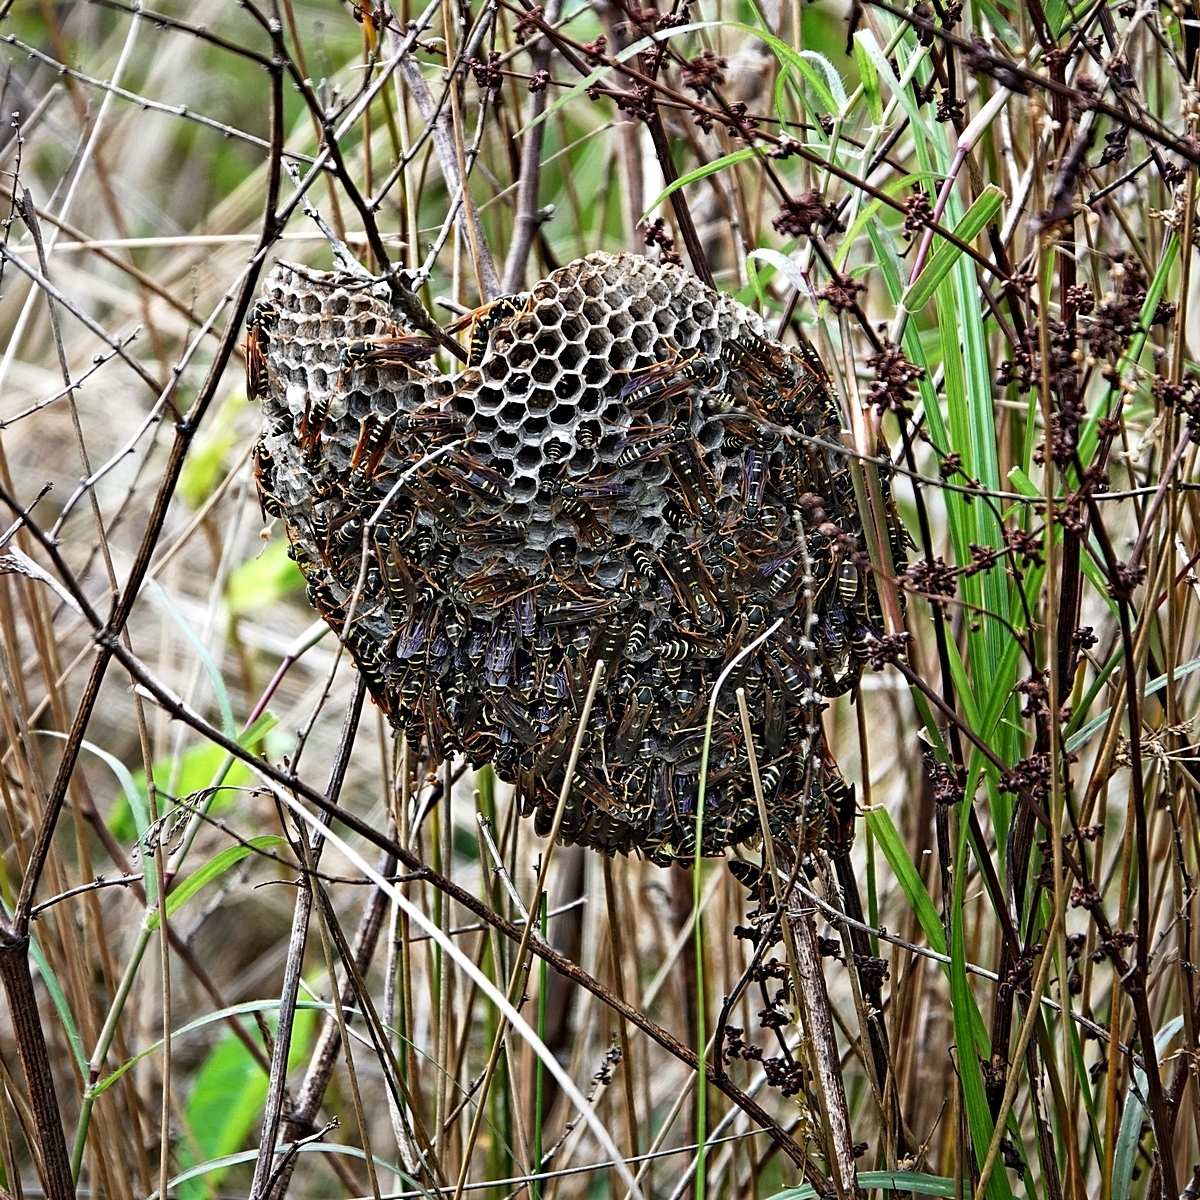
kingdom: Animalia
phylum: Arthropoda
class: Insecta
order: Hymenoptera
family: Eumenidae
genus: Polistes
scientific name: Polistes chinensis
